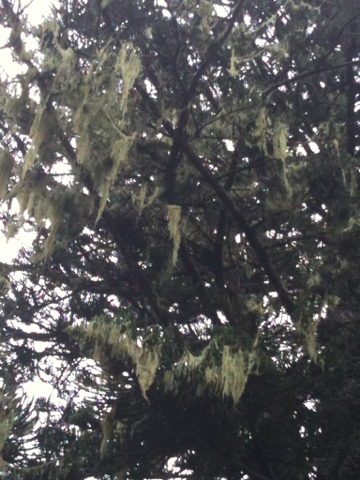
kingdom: Fungi
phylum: Ascomycota
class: Lecanoromycetes
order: Lecanorales
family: Ramalinaceae
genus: Ramalina
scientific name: Ramalina menziesii
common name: Lace lichen
